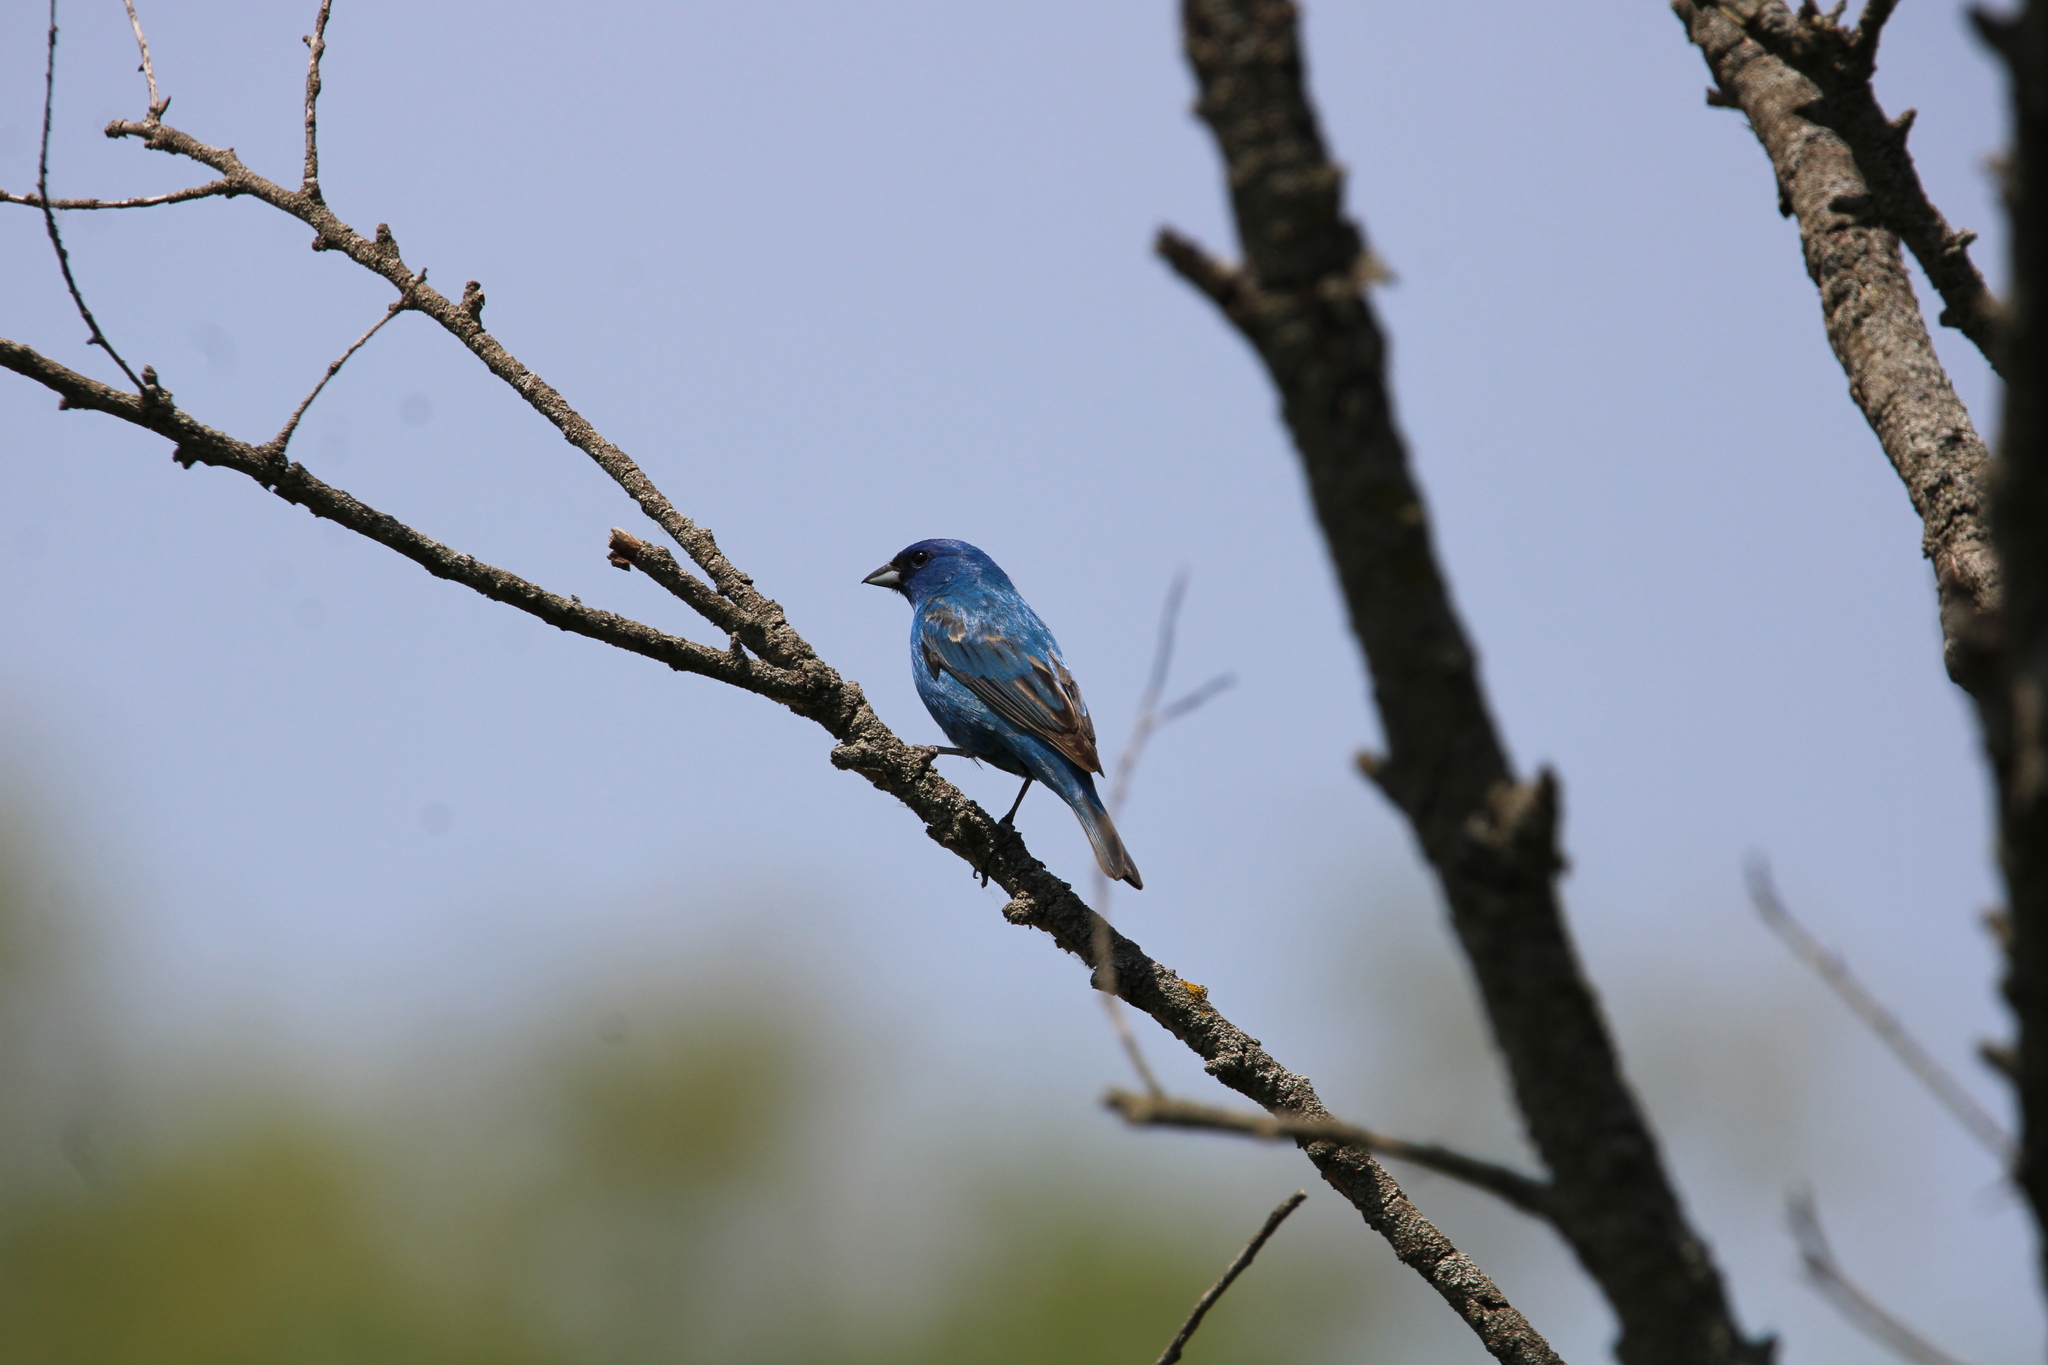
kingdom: Animalia
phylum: Chordata
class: Aves
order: Passeriformes
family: Cardinalidae
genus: Passerina
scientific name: Passerina cyanea
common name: Indigo bunting
